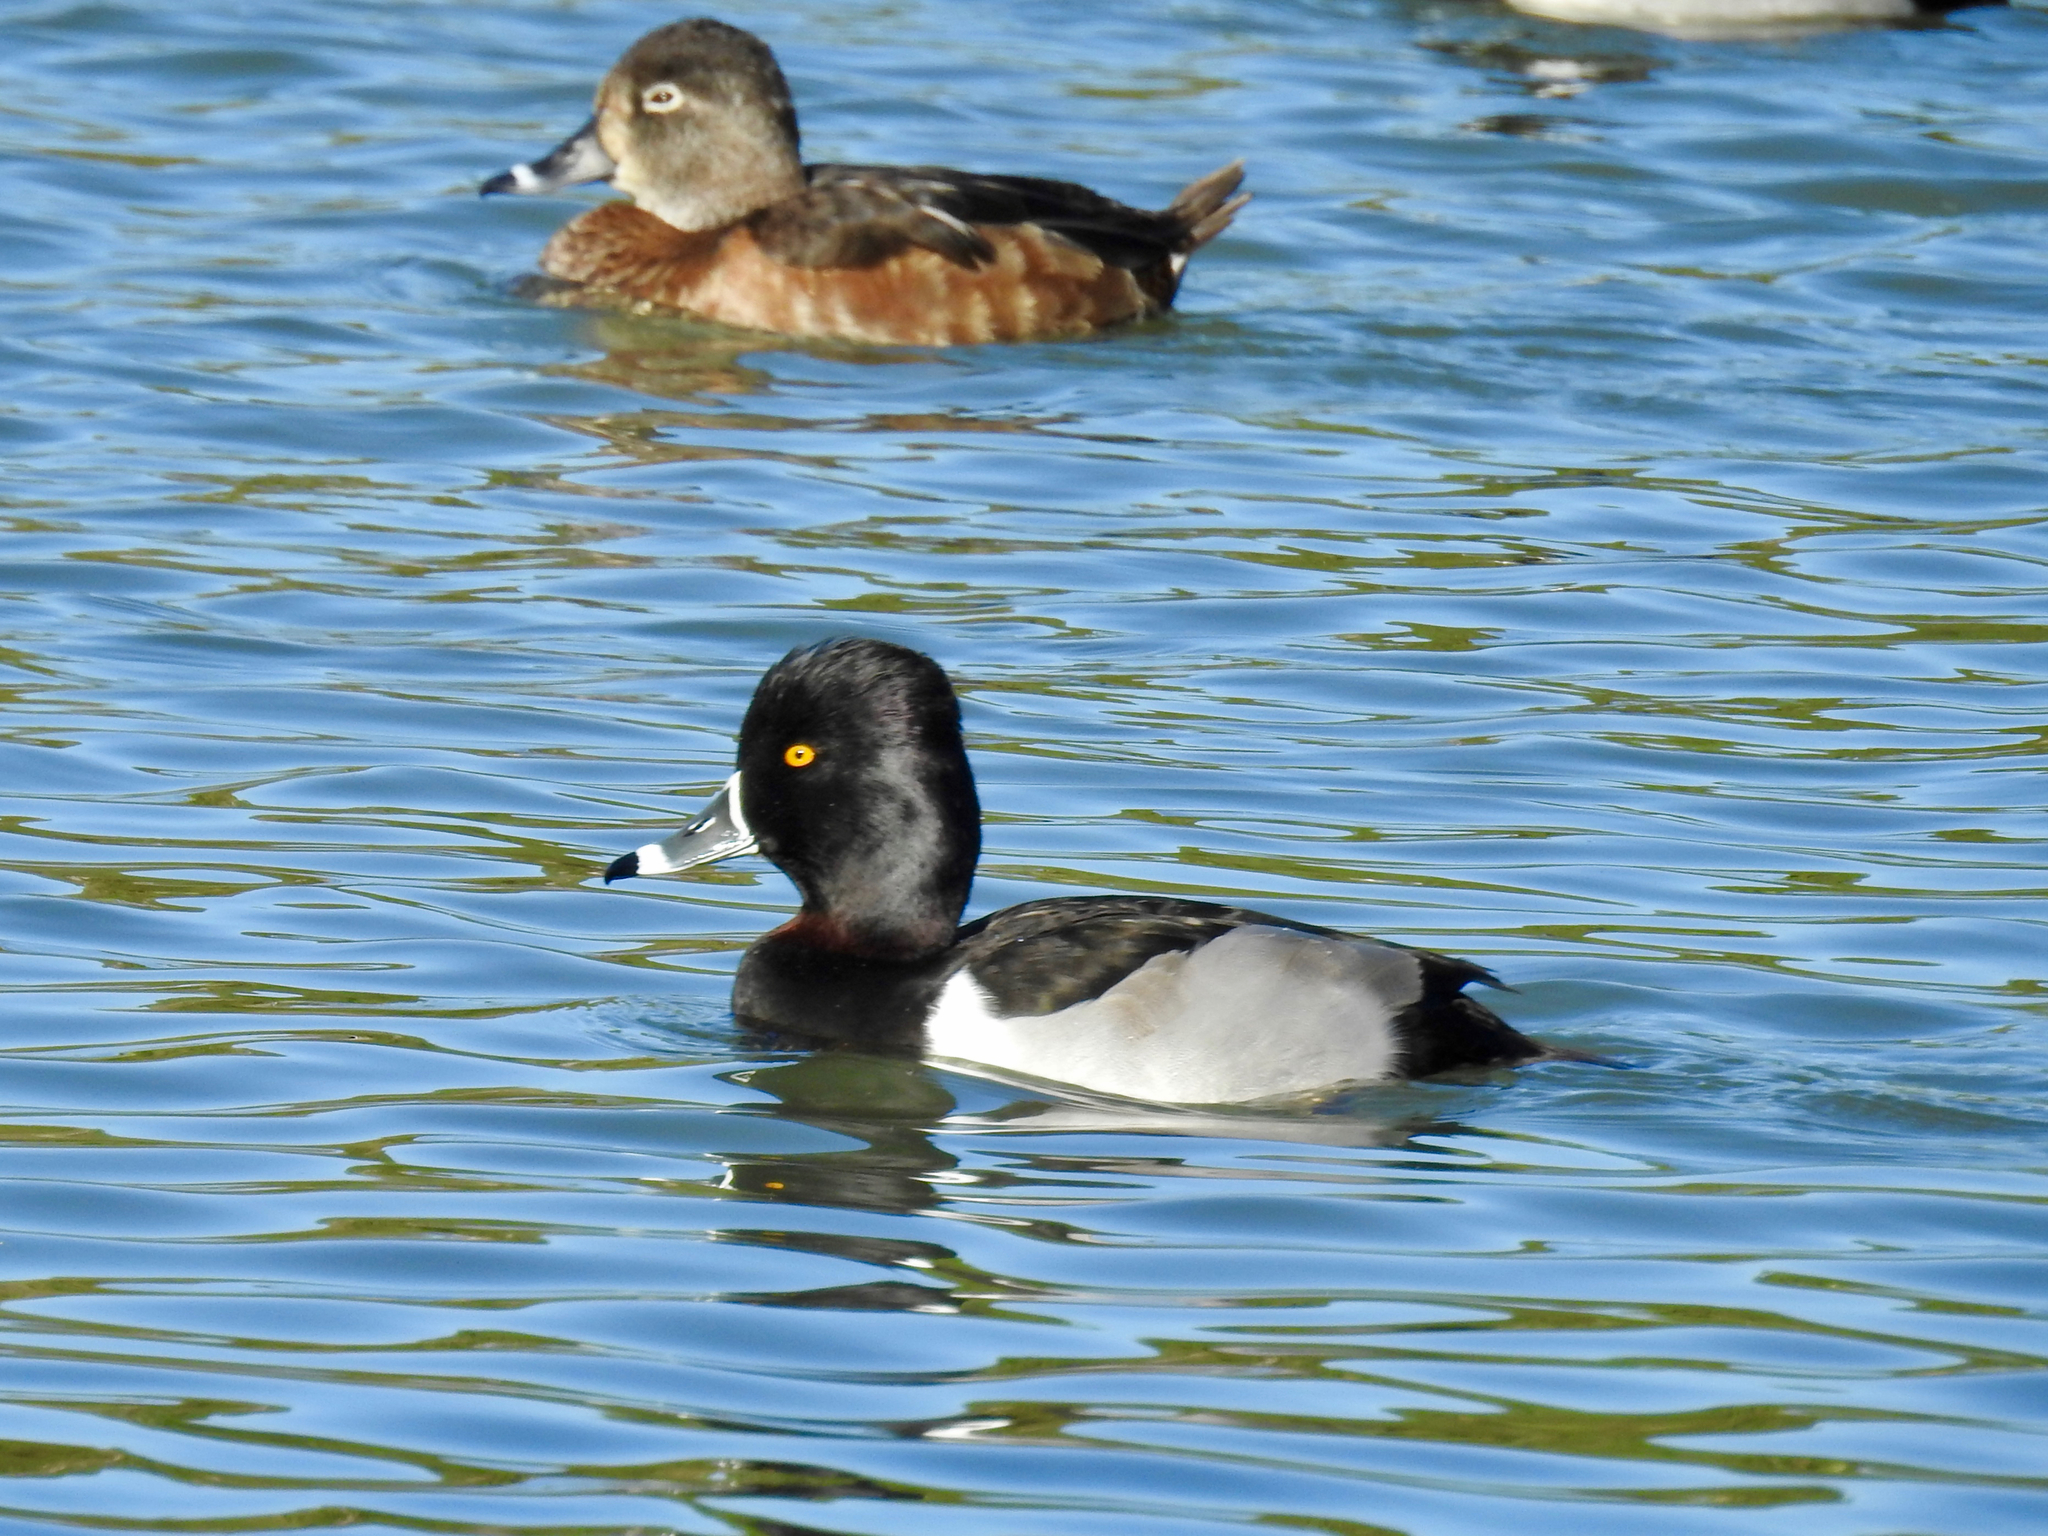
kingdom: Animalia
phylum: Chordata
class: Aves
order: Anseriformes
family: Anatidae
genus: Aythya
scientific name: Aythya collaris
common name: Ring-necked duck
